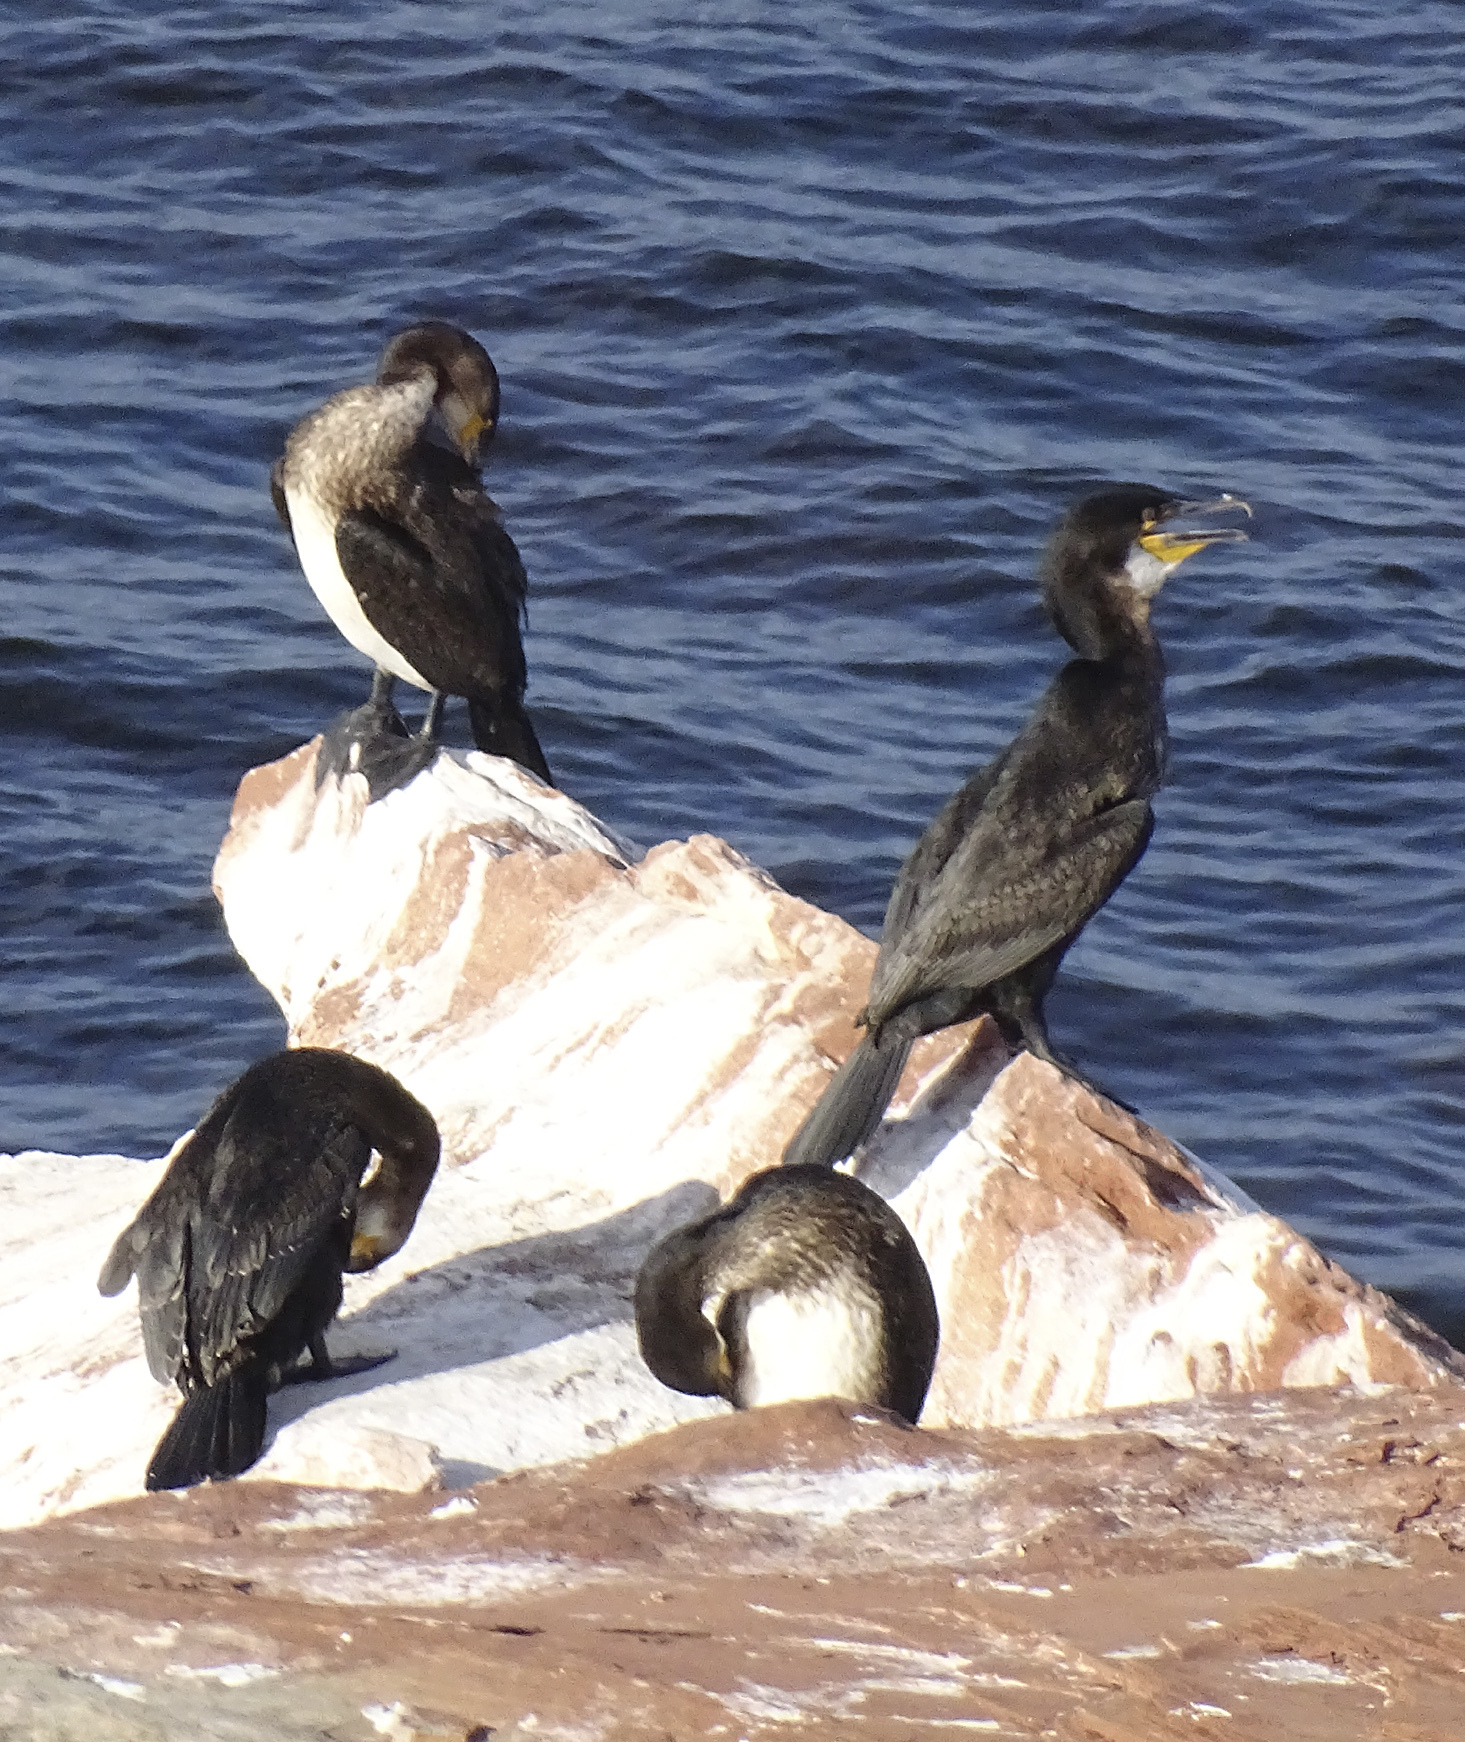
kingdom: Animalia
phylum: Chordata
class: Aves
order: Suliformes
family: Phalacrocoracidae
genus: Phalacrocorax
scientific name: Phalacrocorax carbo
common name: Great cormorant
